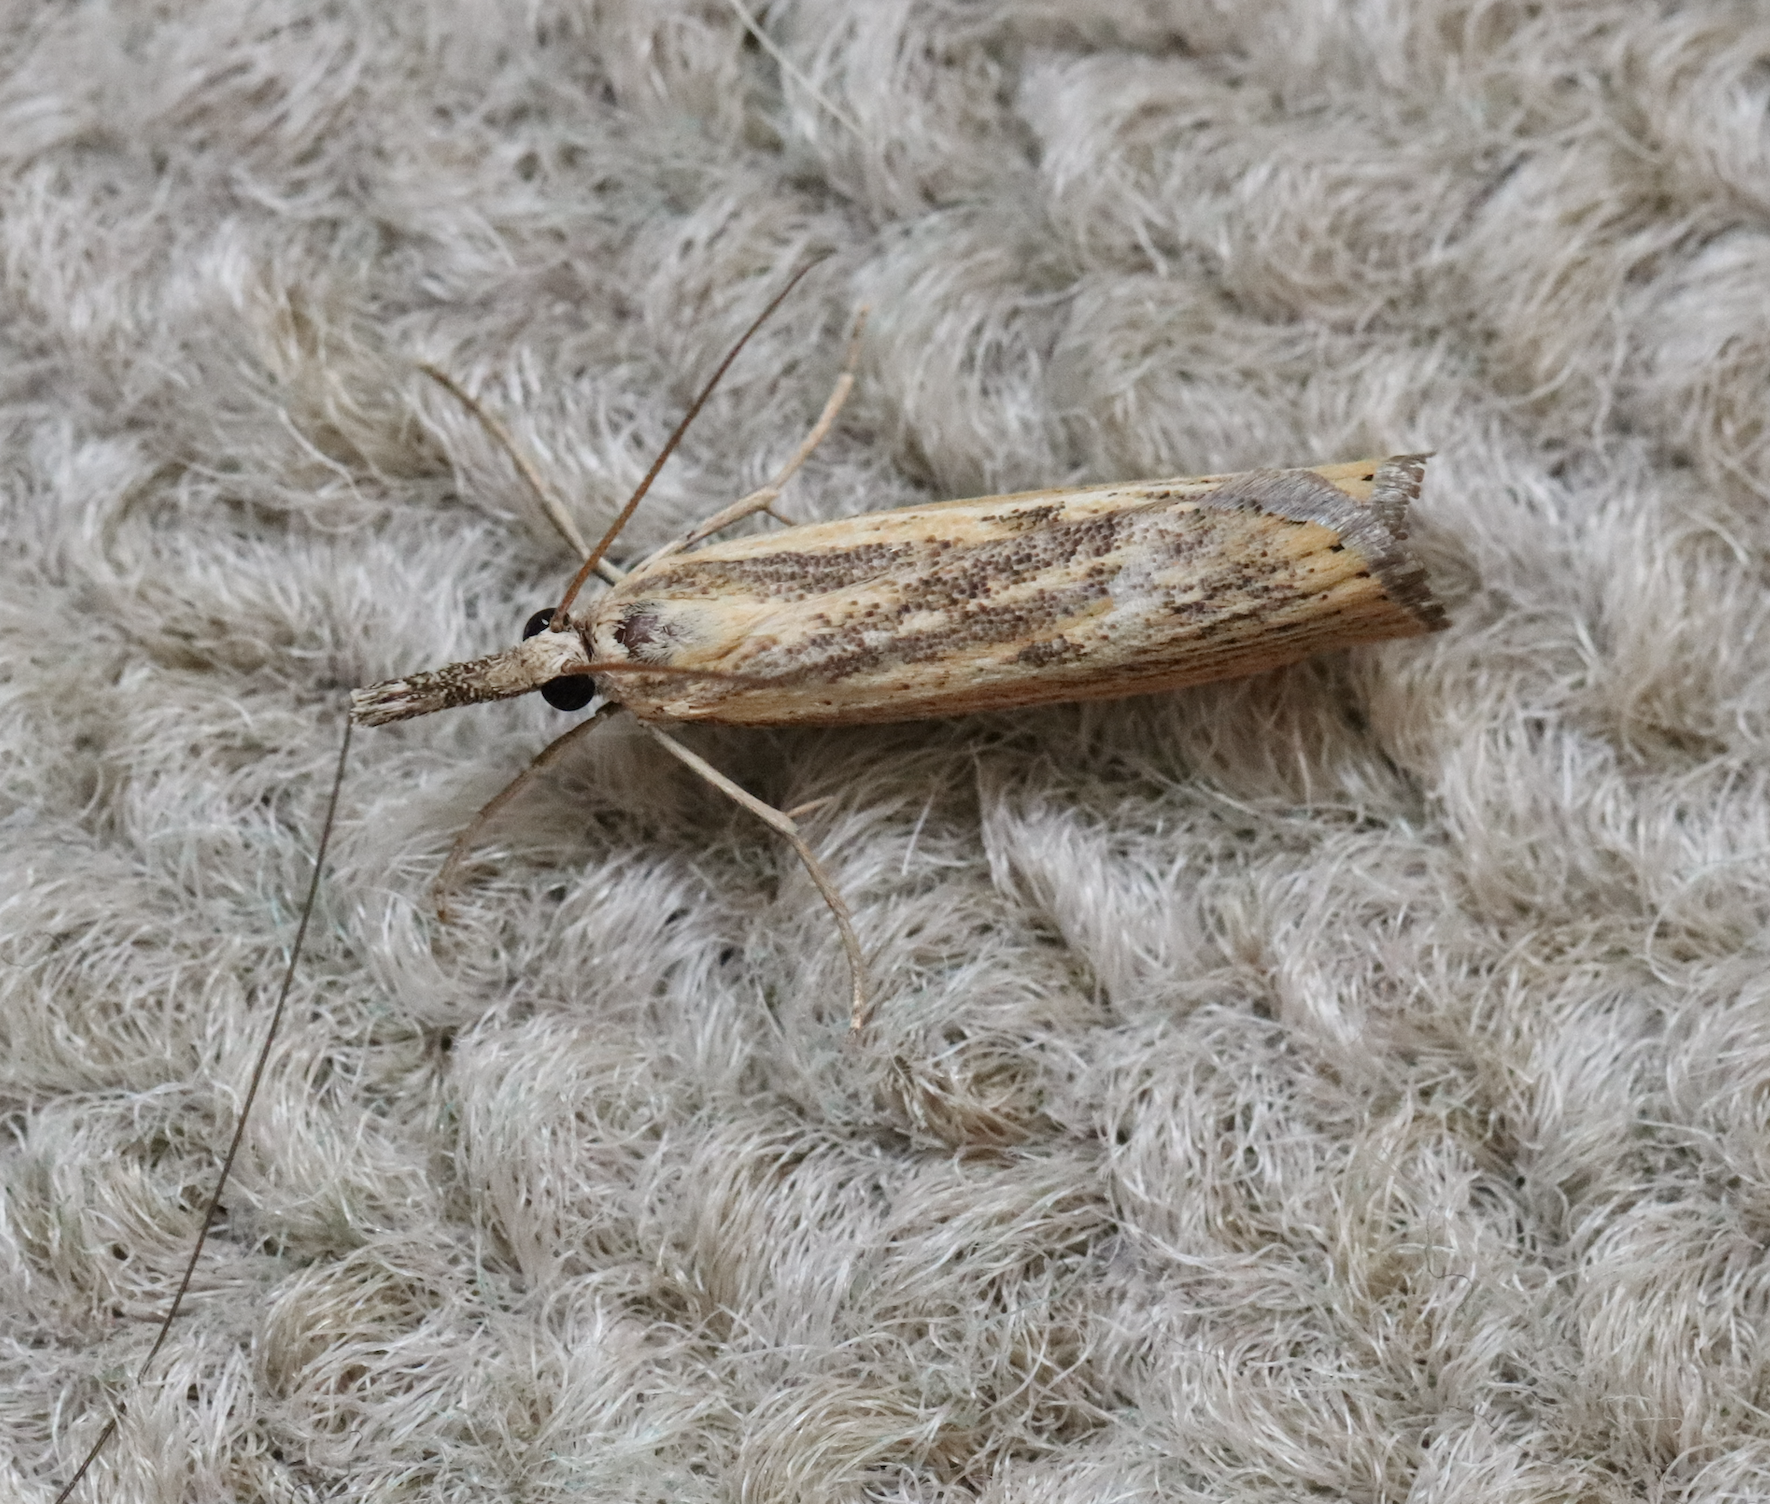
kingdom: Animalia
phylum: Arthropoda
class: Insecta
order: Lepidoptera
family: Crambidae
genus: Agriphila
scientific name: Agriphila inquinatella
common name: Barred grass-veneer
